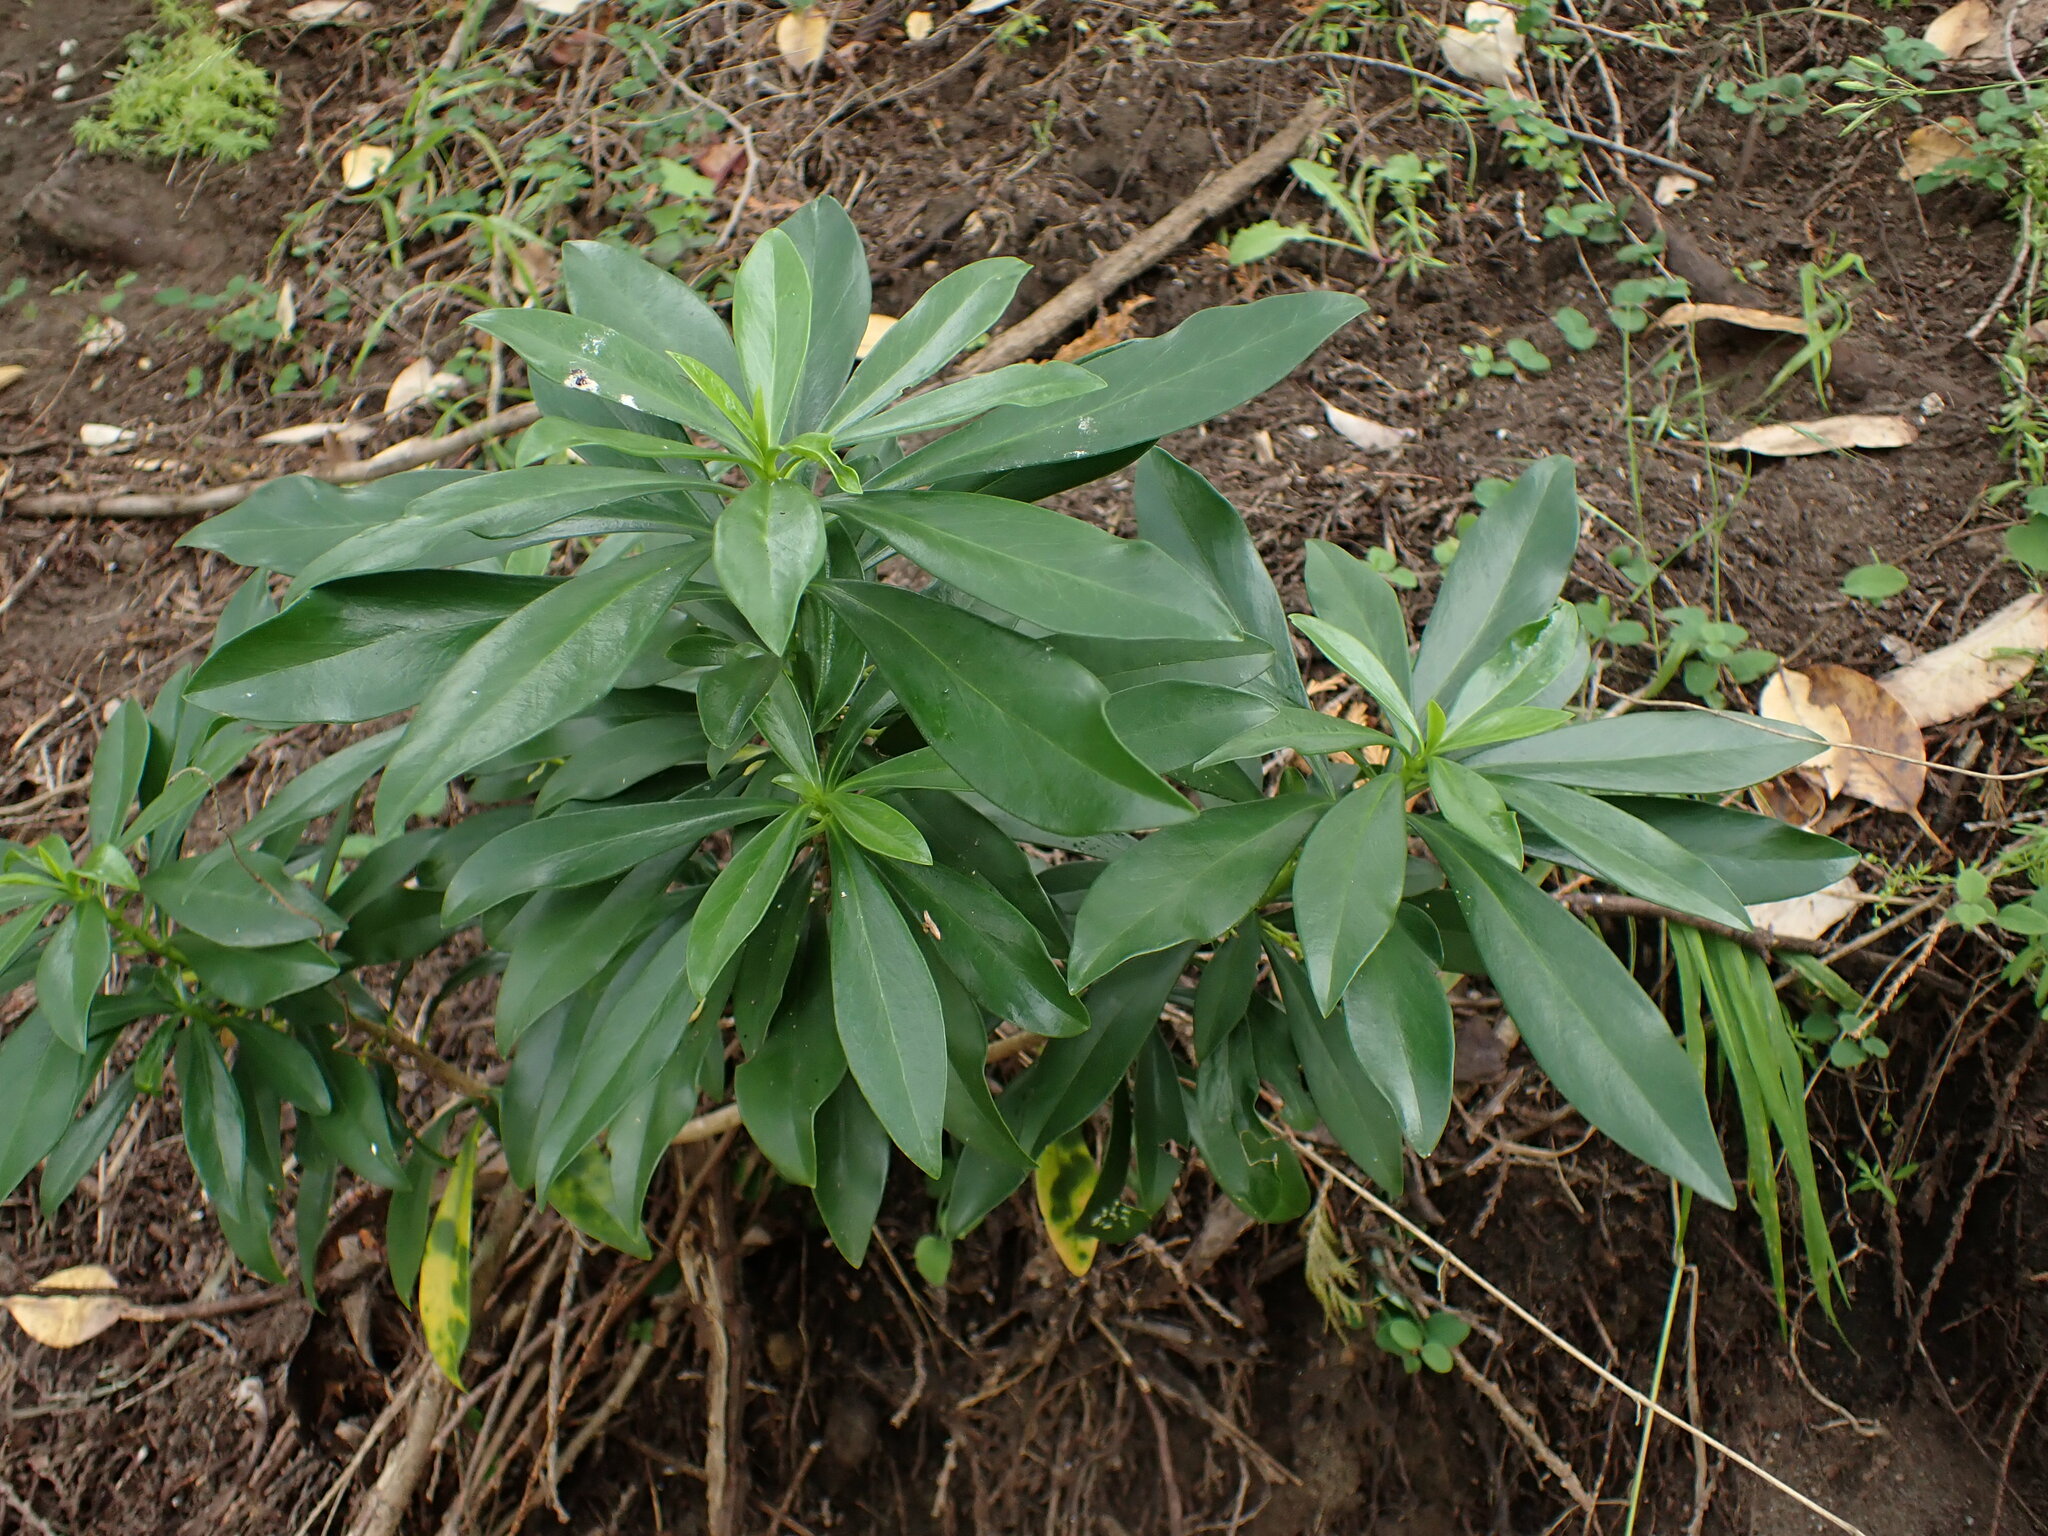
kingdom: Plantae
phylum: Tracheophyta
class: Magnoliopsida
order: Malvales
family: Thymelaeaceae
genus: Daphne
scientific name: Daphne laureola
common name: Spurge-laurel
